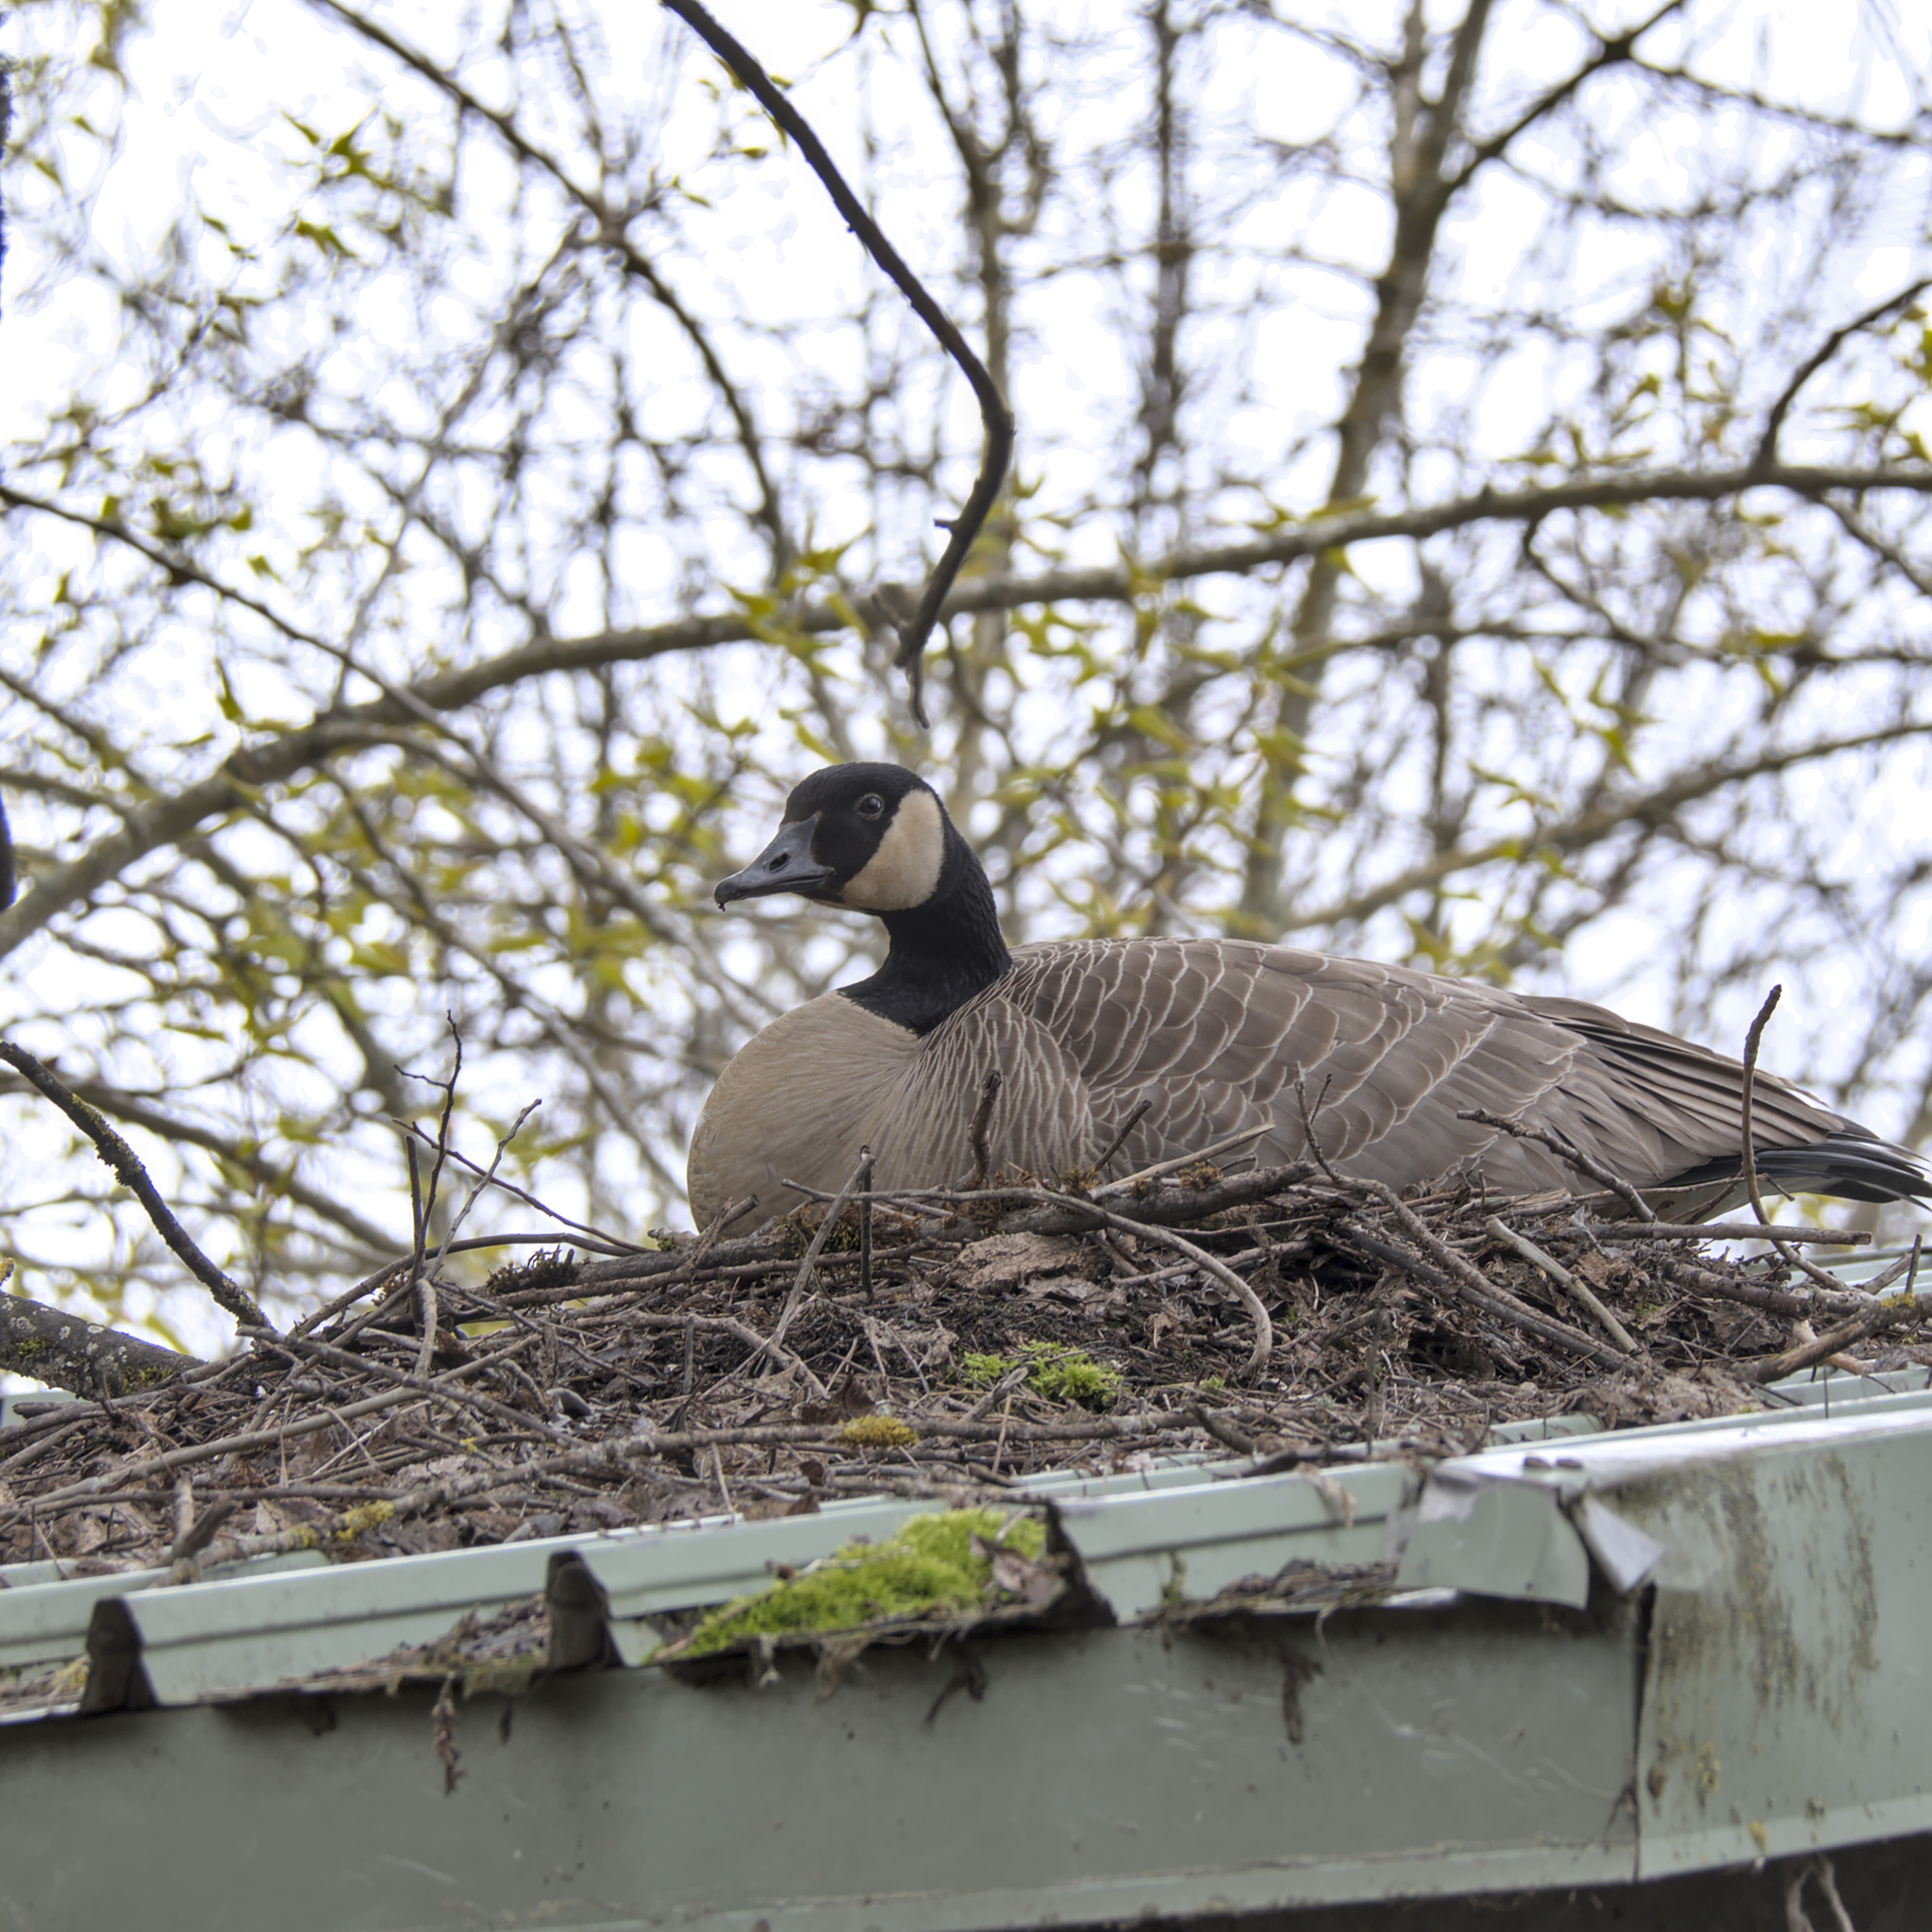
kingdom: Animalia
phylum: Chordata
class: Aves
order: Anseriformes
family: Anatidae
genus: Branta
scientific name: Branta canadensis
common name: Canada goose
